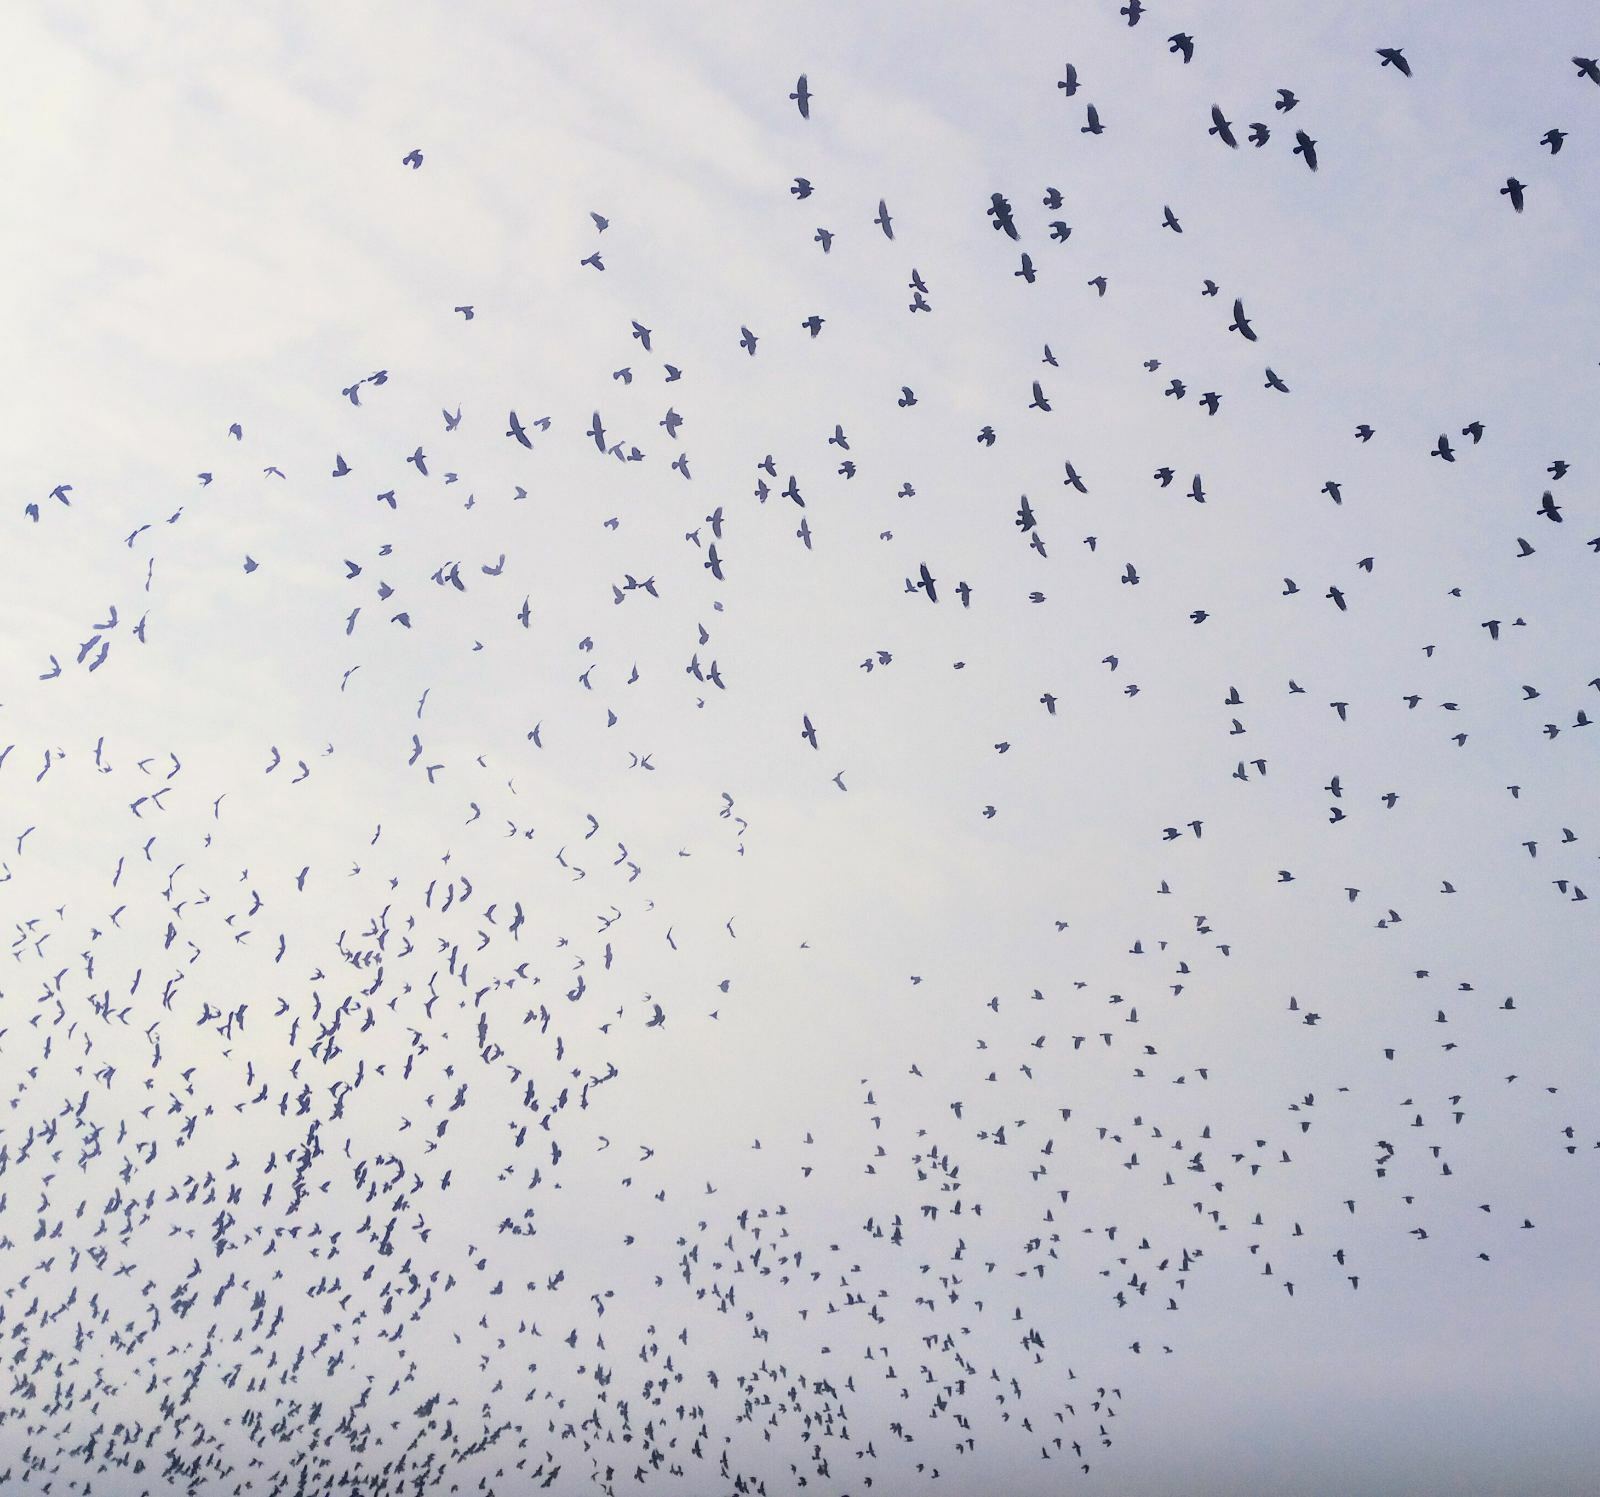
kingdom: Animalia
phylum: Chordata
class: Aves
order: Passeriformes
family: Corvidae
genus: Corvus
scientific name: Corvus frugilegus
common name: Rook
